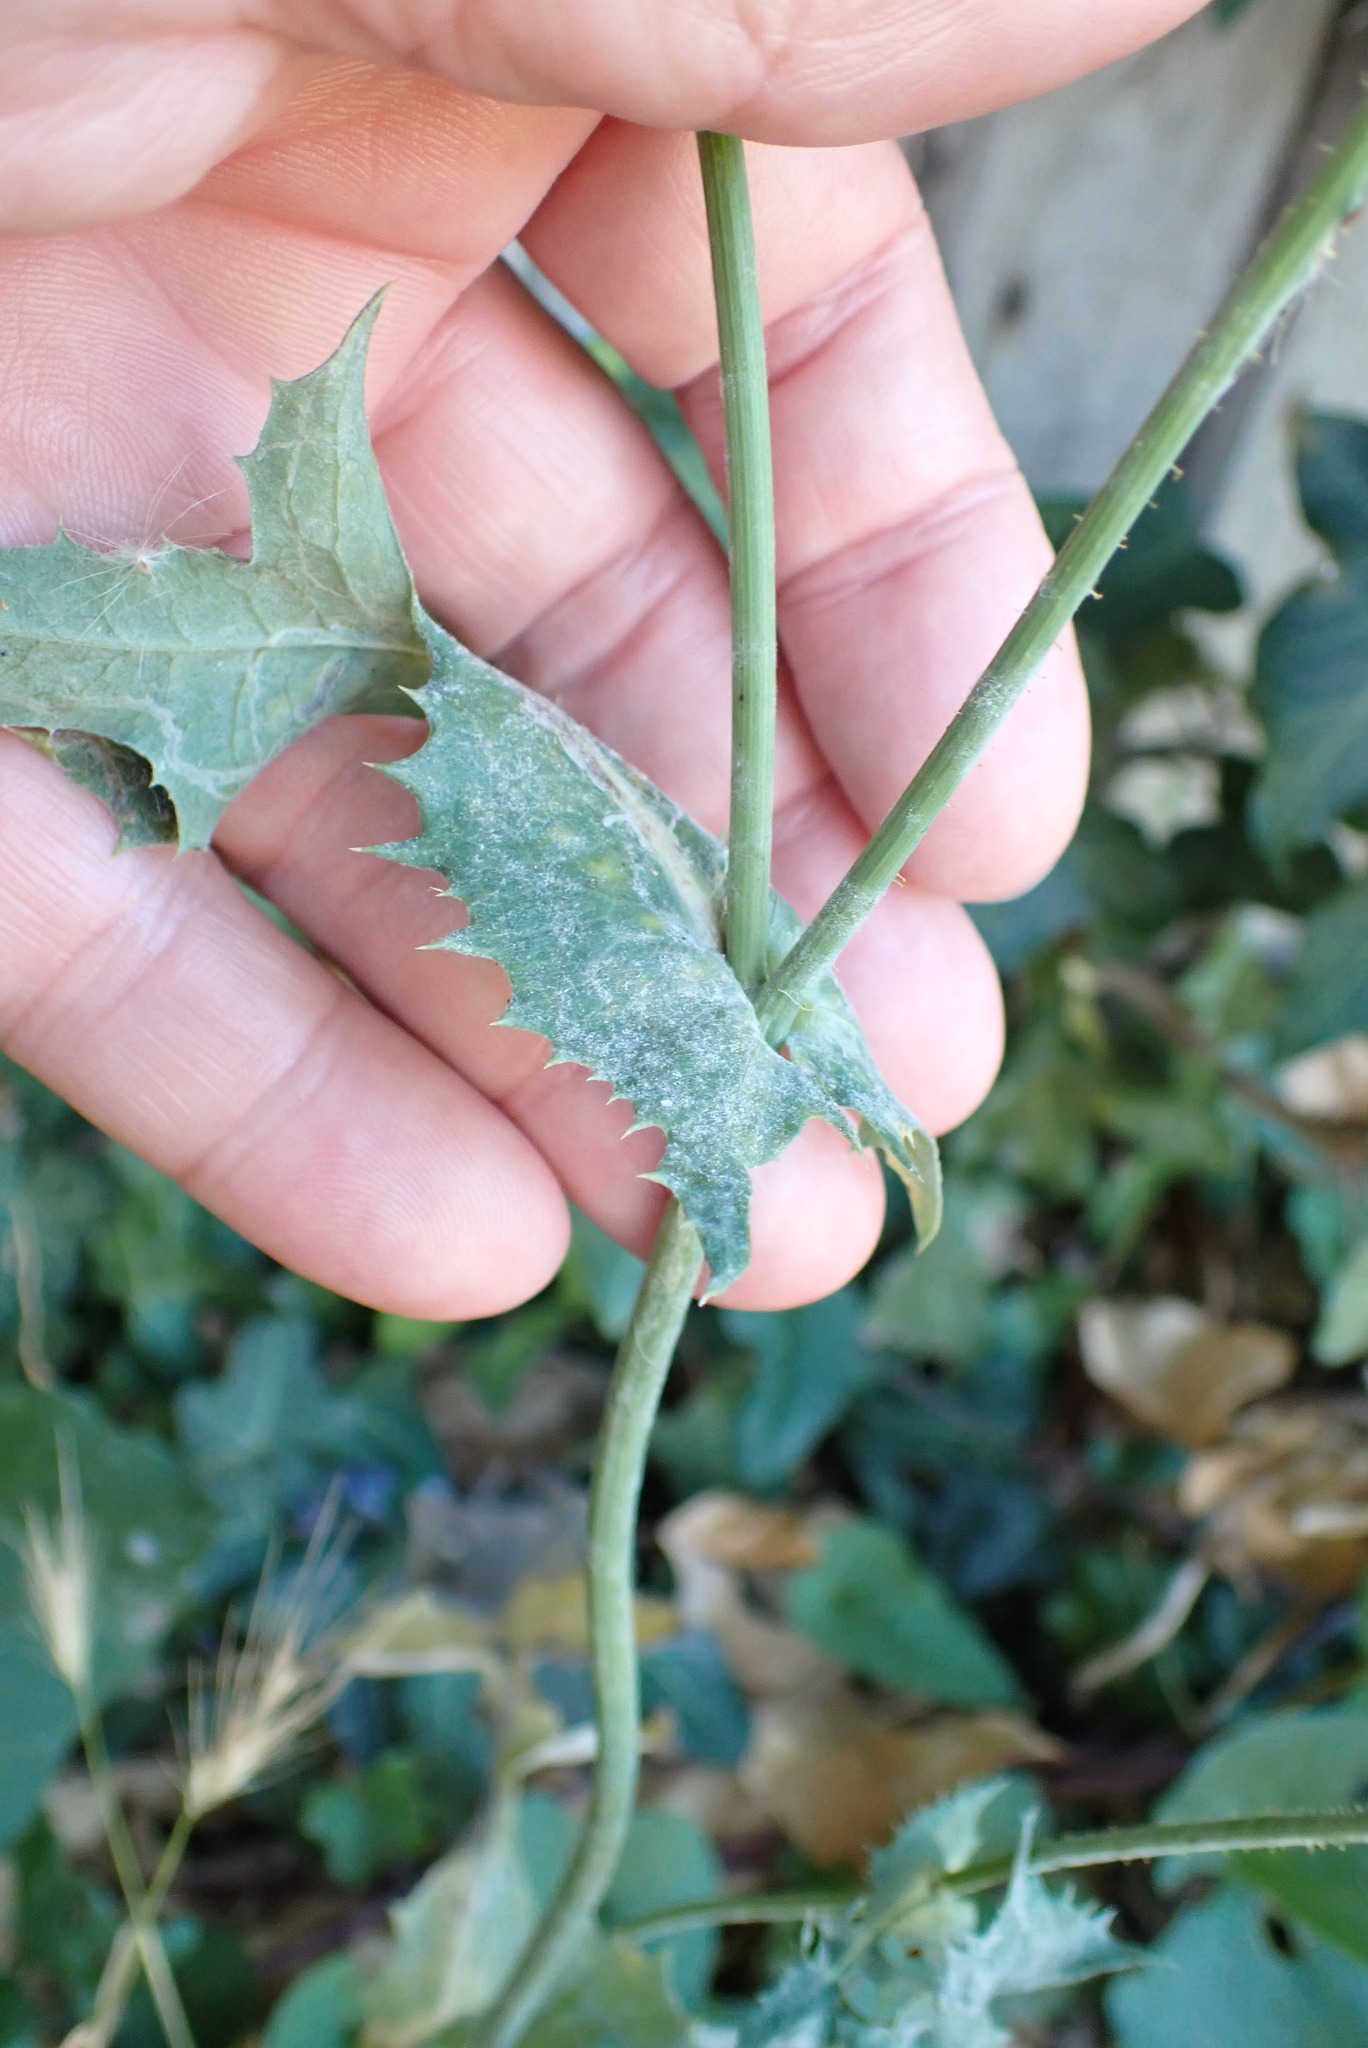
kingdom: Plantae
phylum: Tracheophyta
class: Magnoliopsida
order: Asterales
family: Asteraceae
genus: Sonchus
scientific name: Sonchus oleraceus
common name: Common sowthistle
